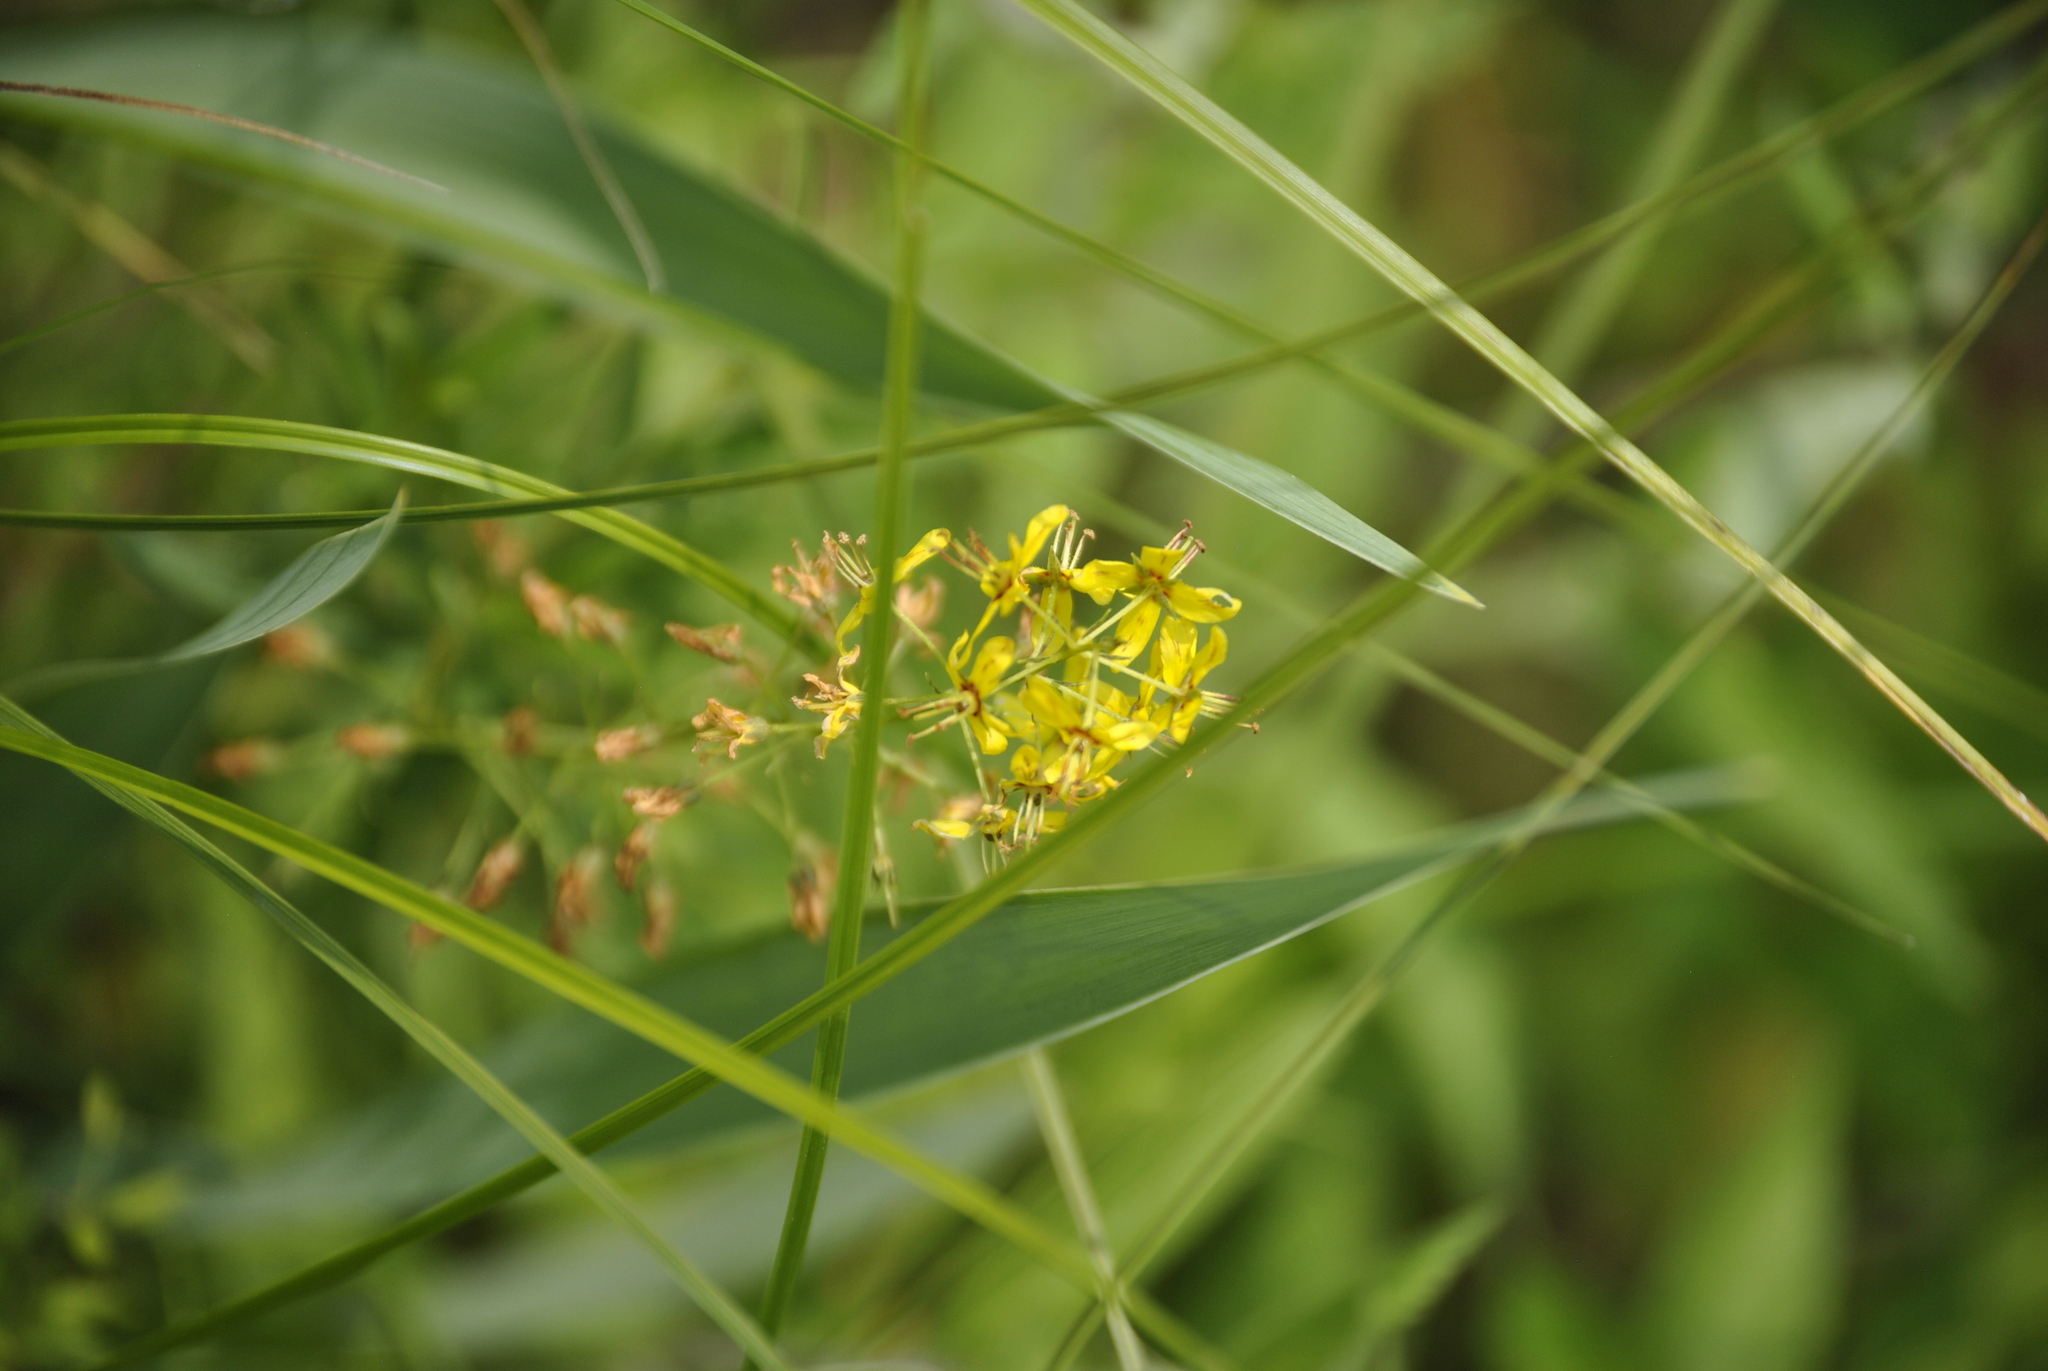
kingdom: Plantae
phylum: Tracheophyta
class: Magnoliopsida
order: Ericales
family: Primulaceae
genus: Lysimachia
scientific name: Lysimachia terrestris
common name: Lake loosestrife
